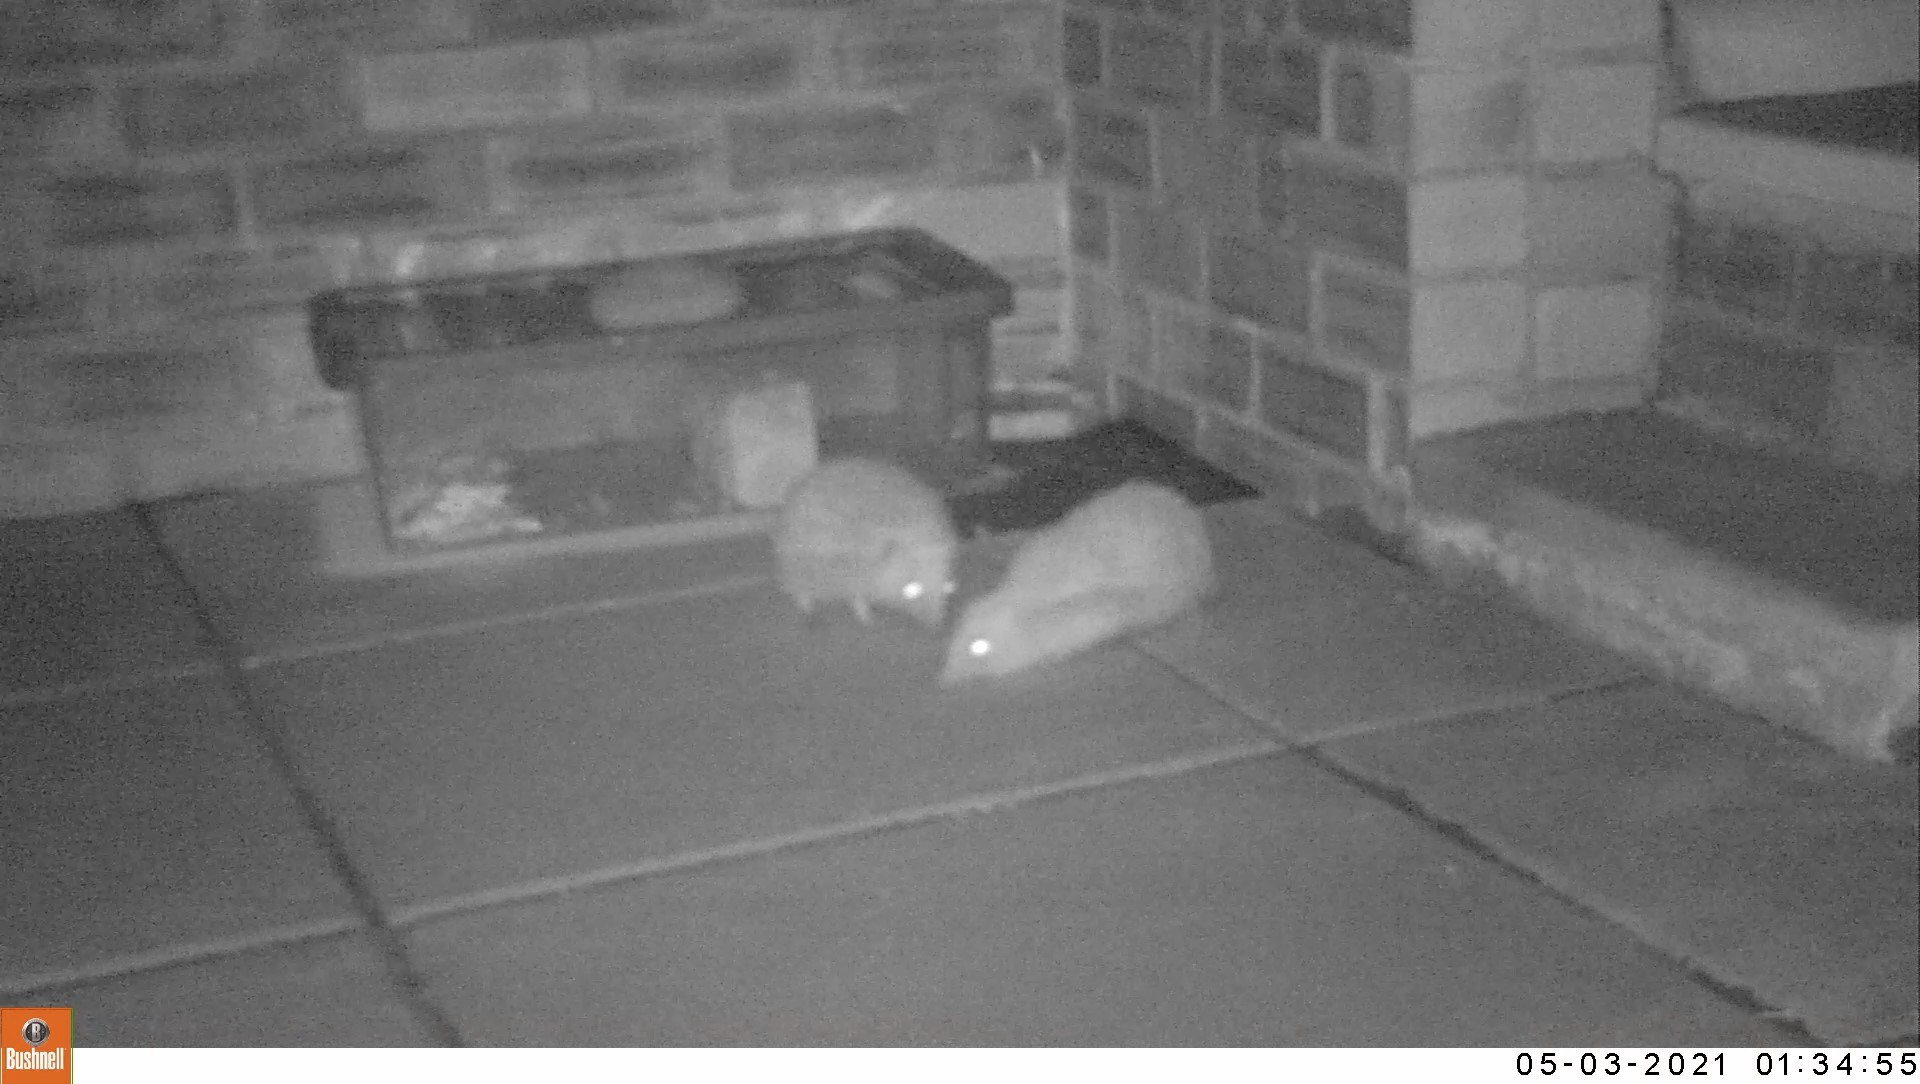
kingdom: Animalia
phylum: Chordata
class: Mammalia
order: Erinaceomorpha
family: Erinaceidae
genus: Erinaceus
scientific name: Erinaceus europaeus
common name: West european hedgehog
